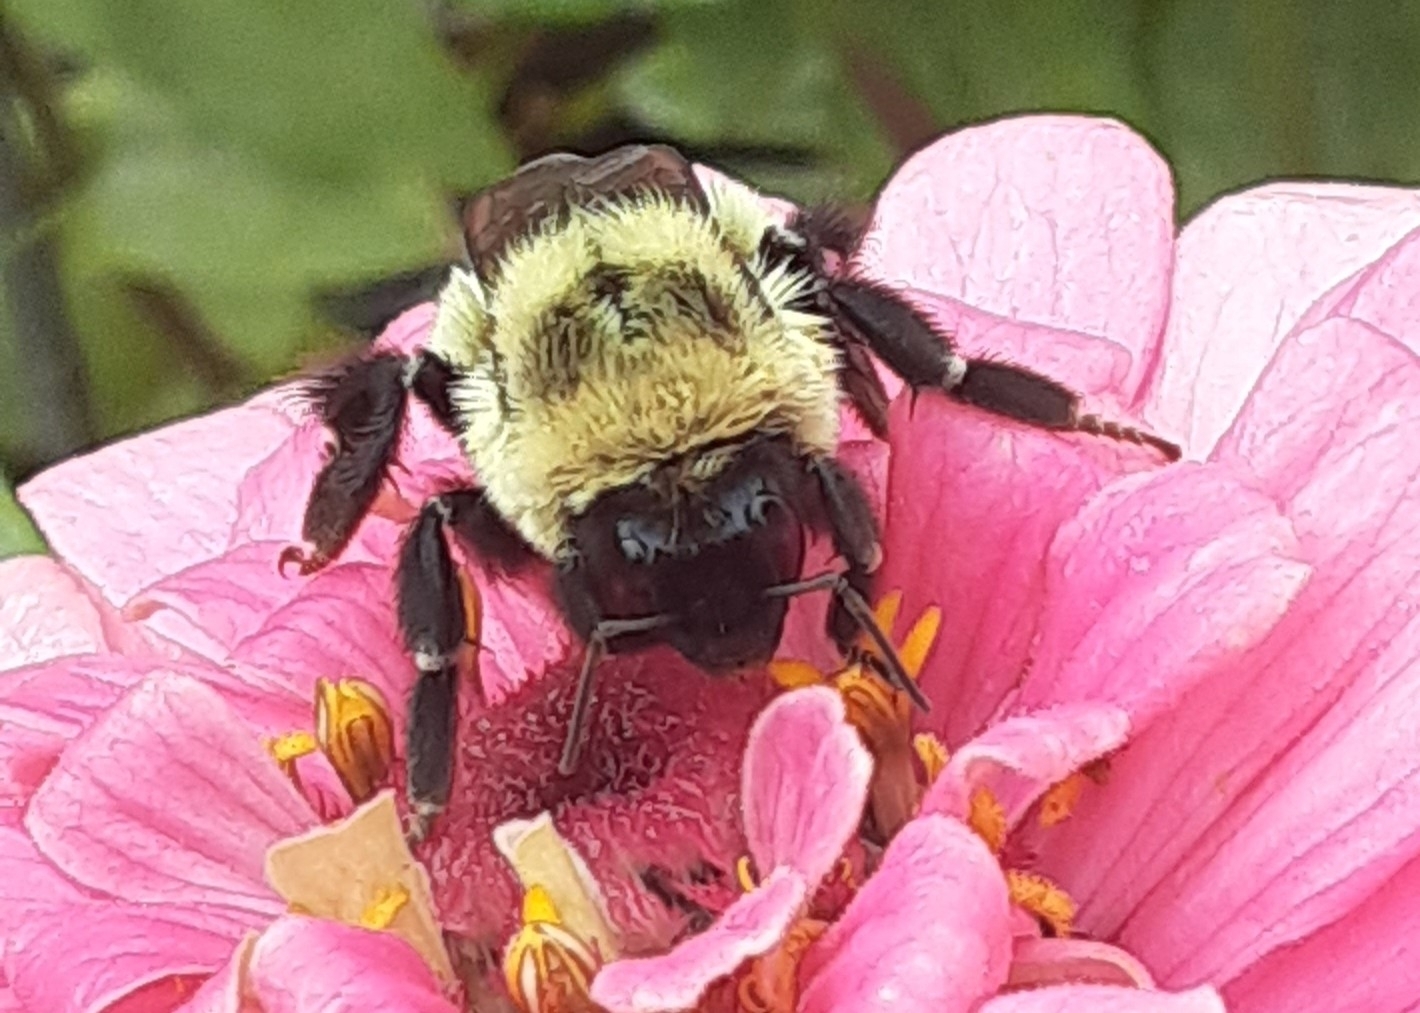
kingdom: Animalia
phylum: Arthropoda
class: Insecta
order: Hymenoptera
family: Apidae
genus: Bombus
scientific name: Bombus impatiens
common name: Common eastern bumble bee
